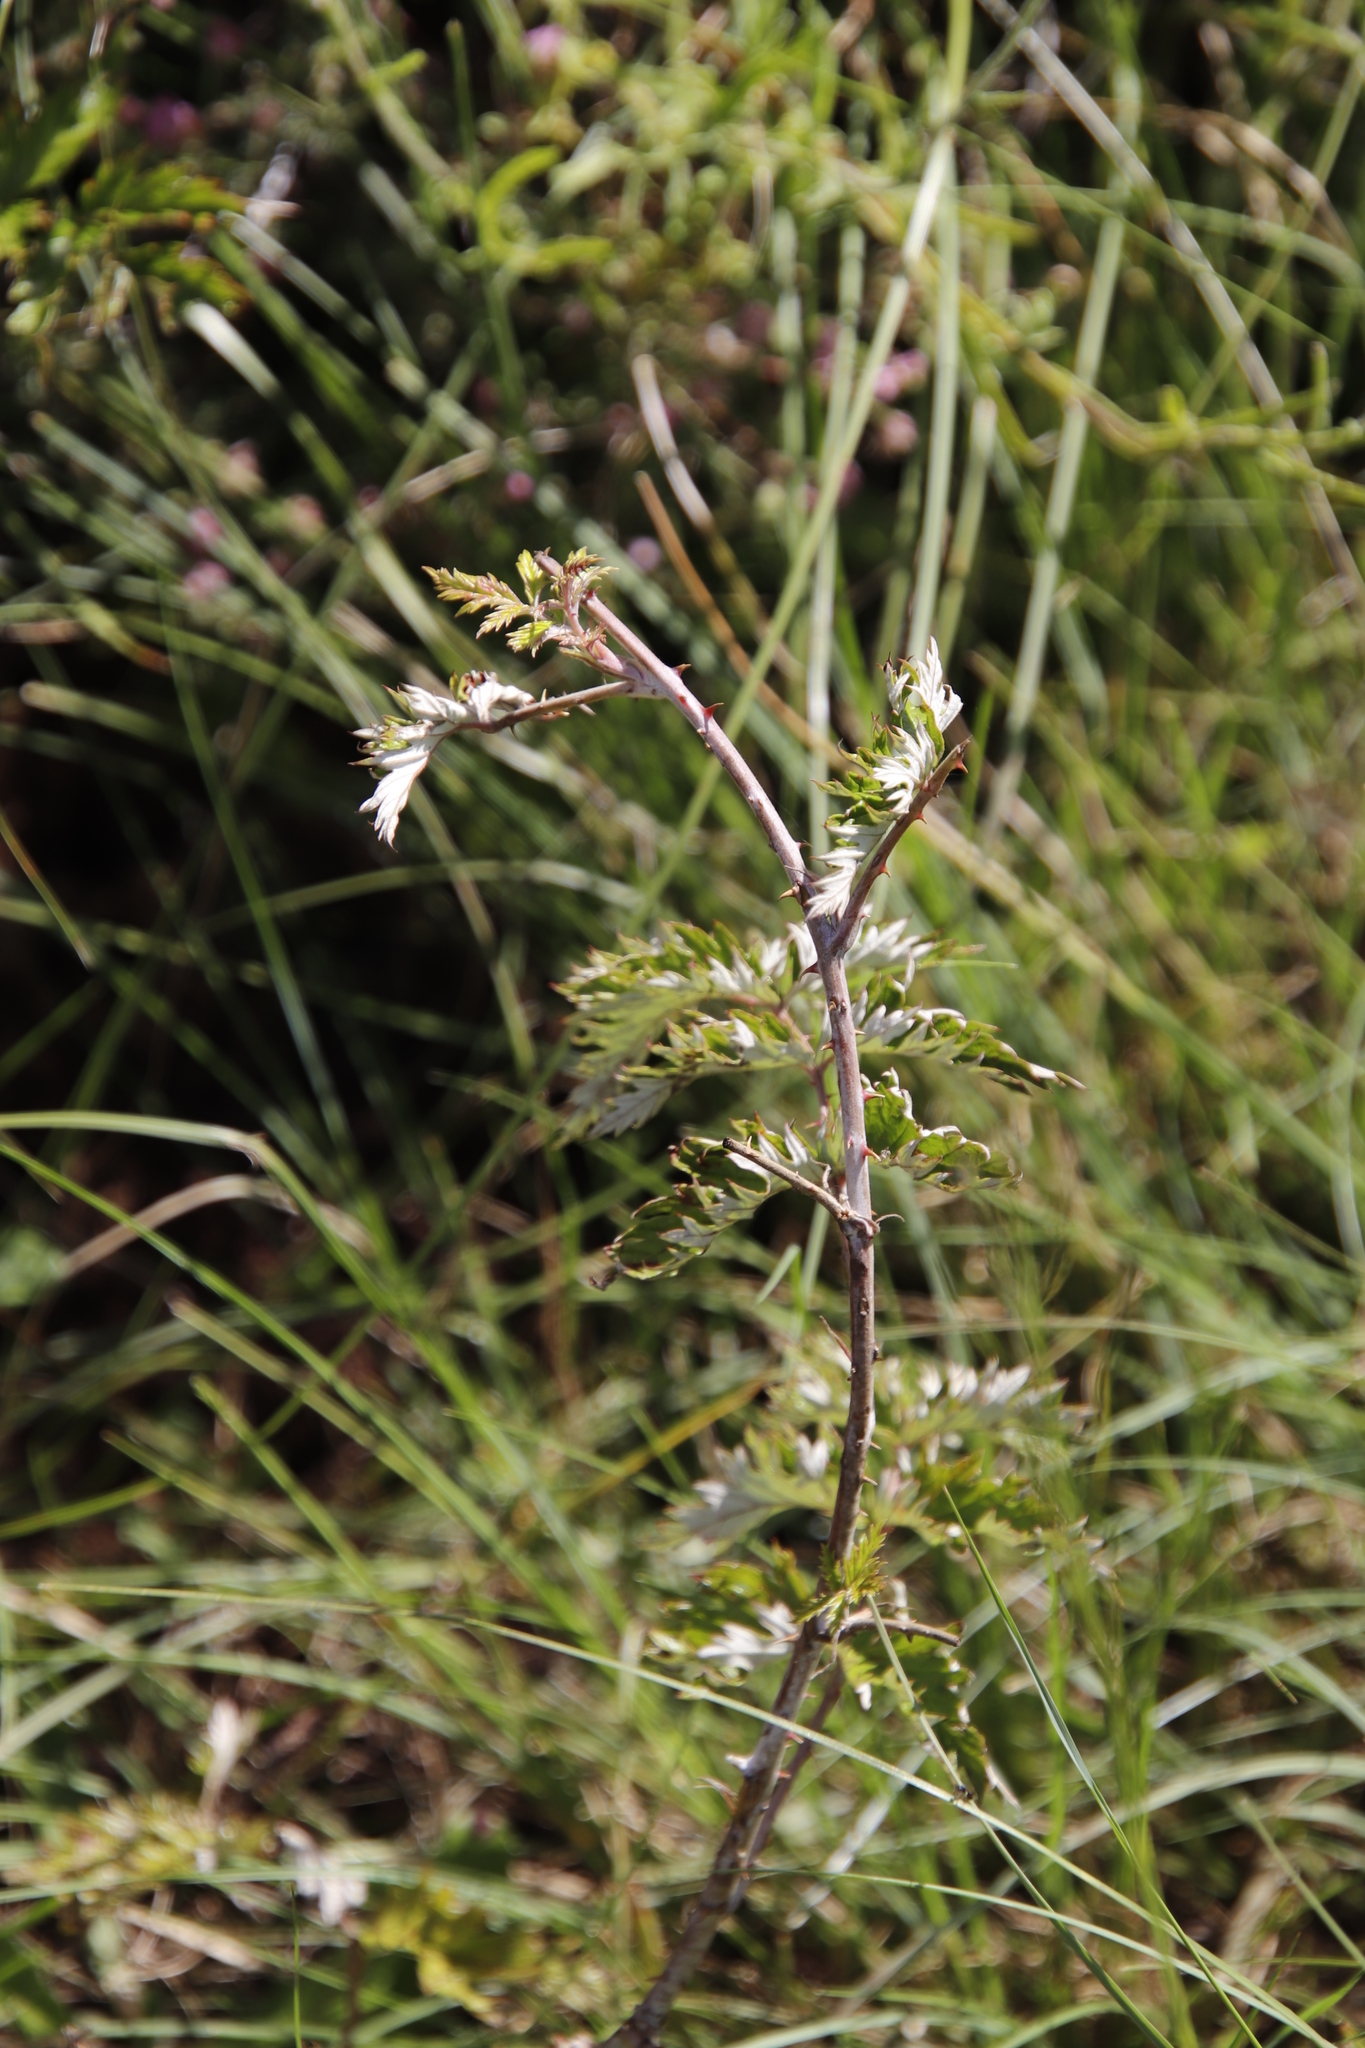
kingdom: Plantae
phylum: Tracheophyta
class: Magnoliopsida
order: Rosales
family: Rosaceae
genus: Rubus
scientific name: Rubus ludwigii
